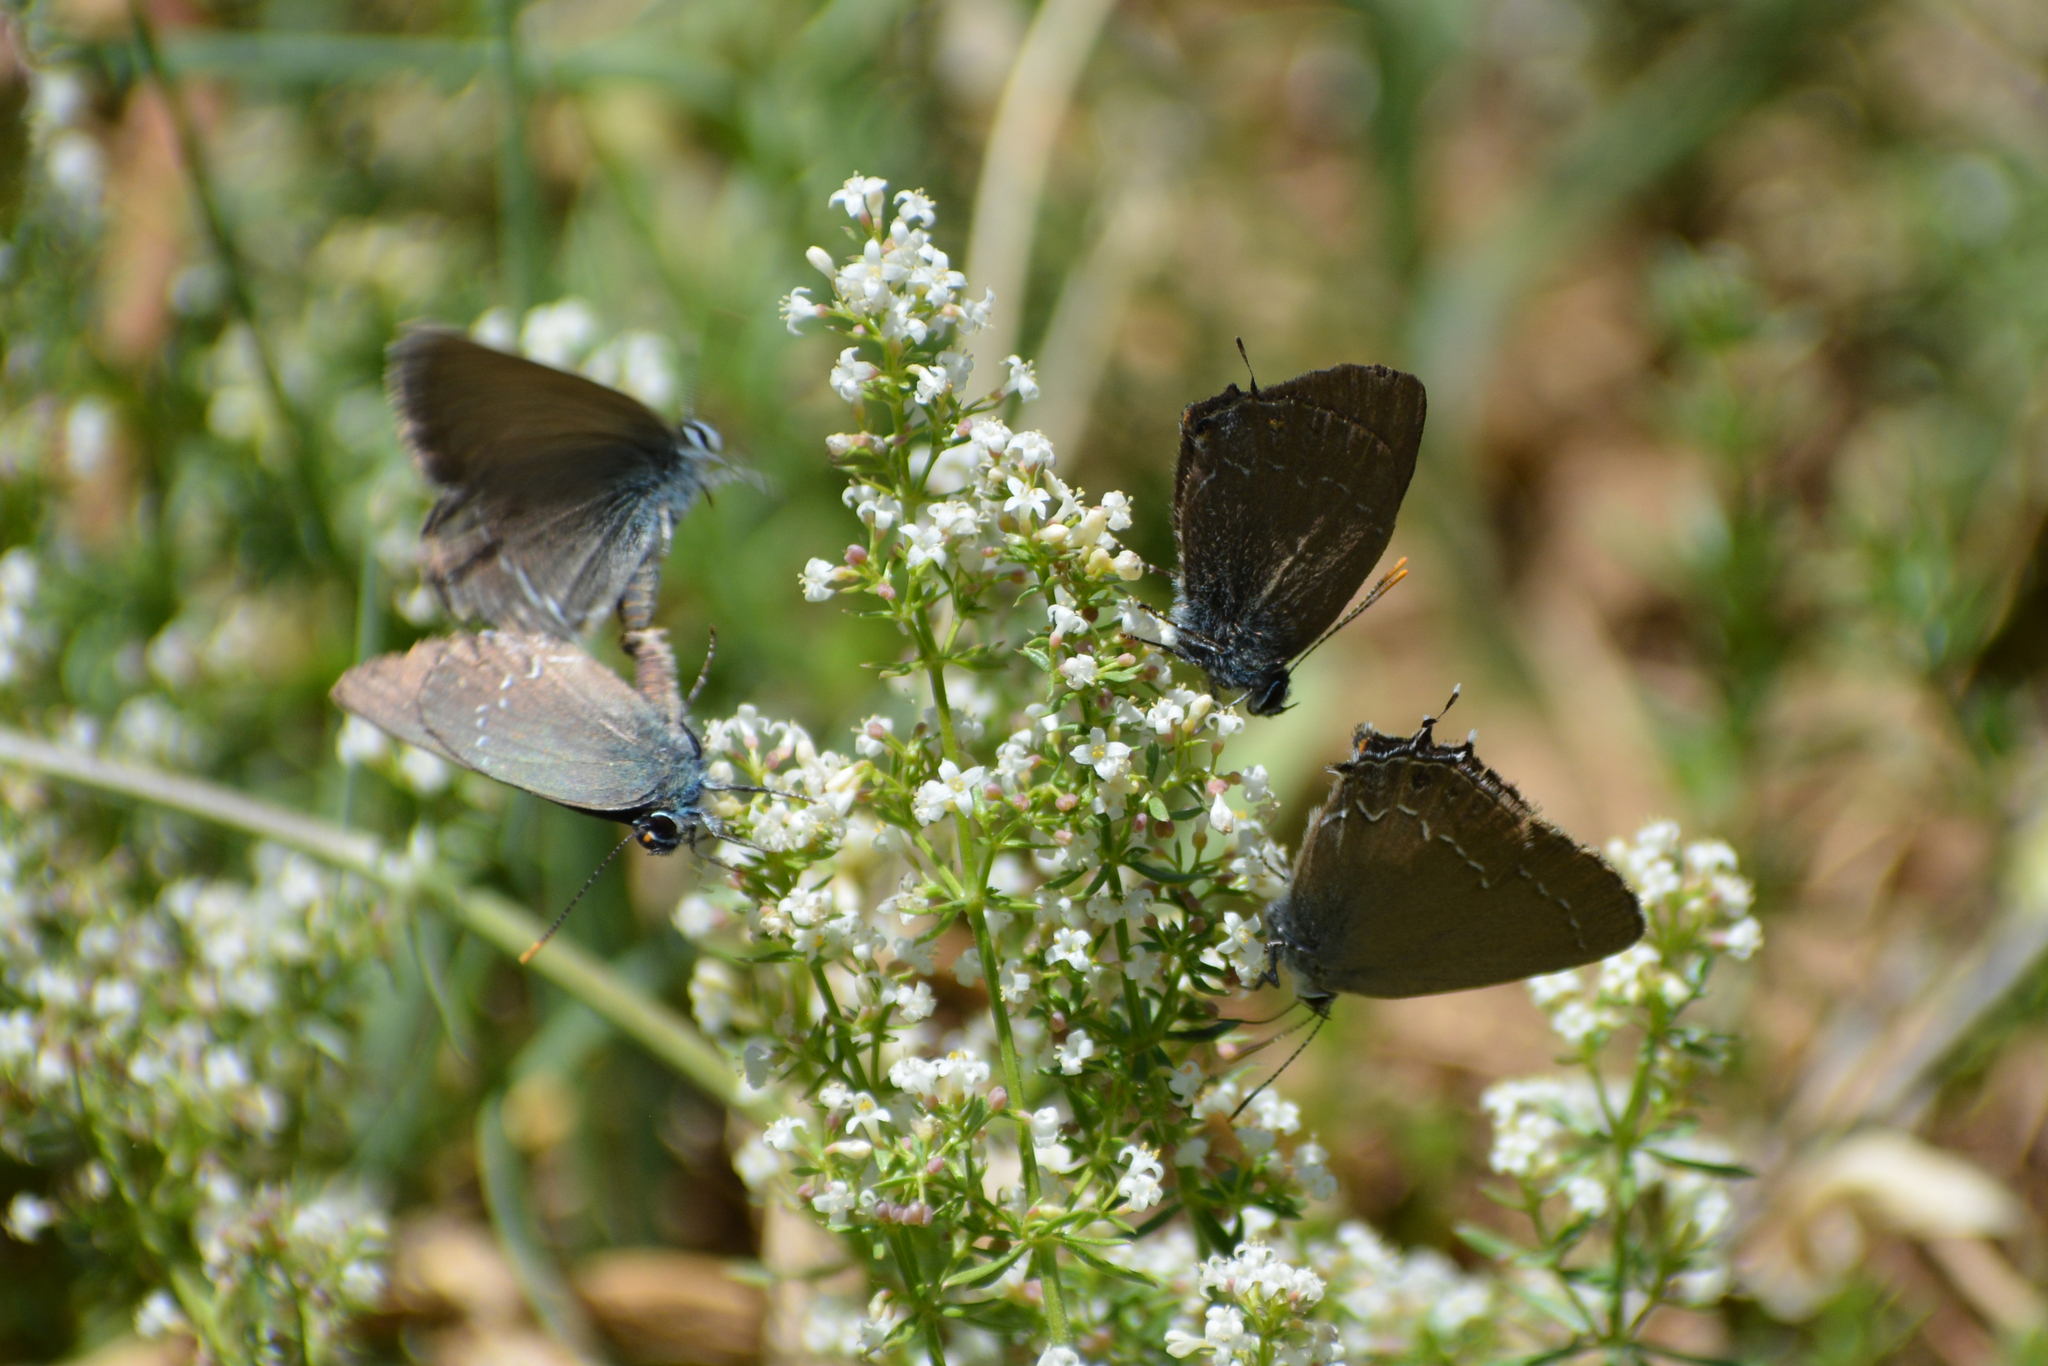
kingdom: Animalia
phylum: Arthropoda
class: Insecta
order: Lepidoptera
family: Lycaenidae
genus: Satyrium
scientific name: Satyrium
